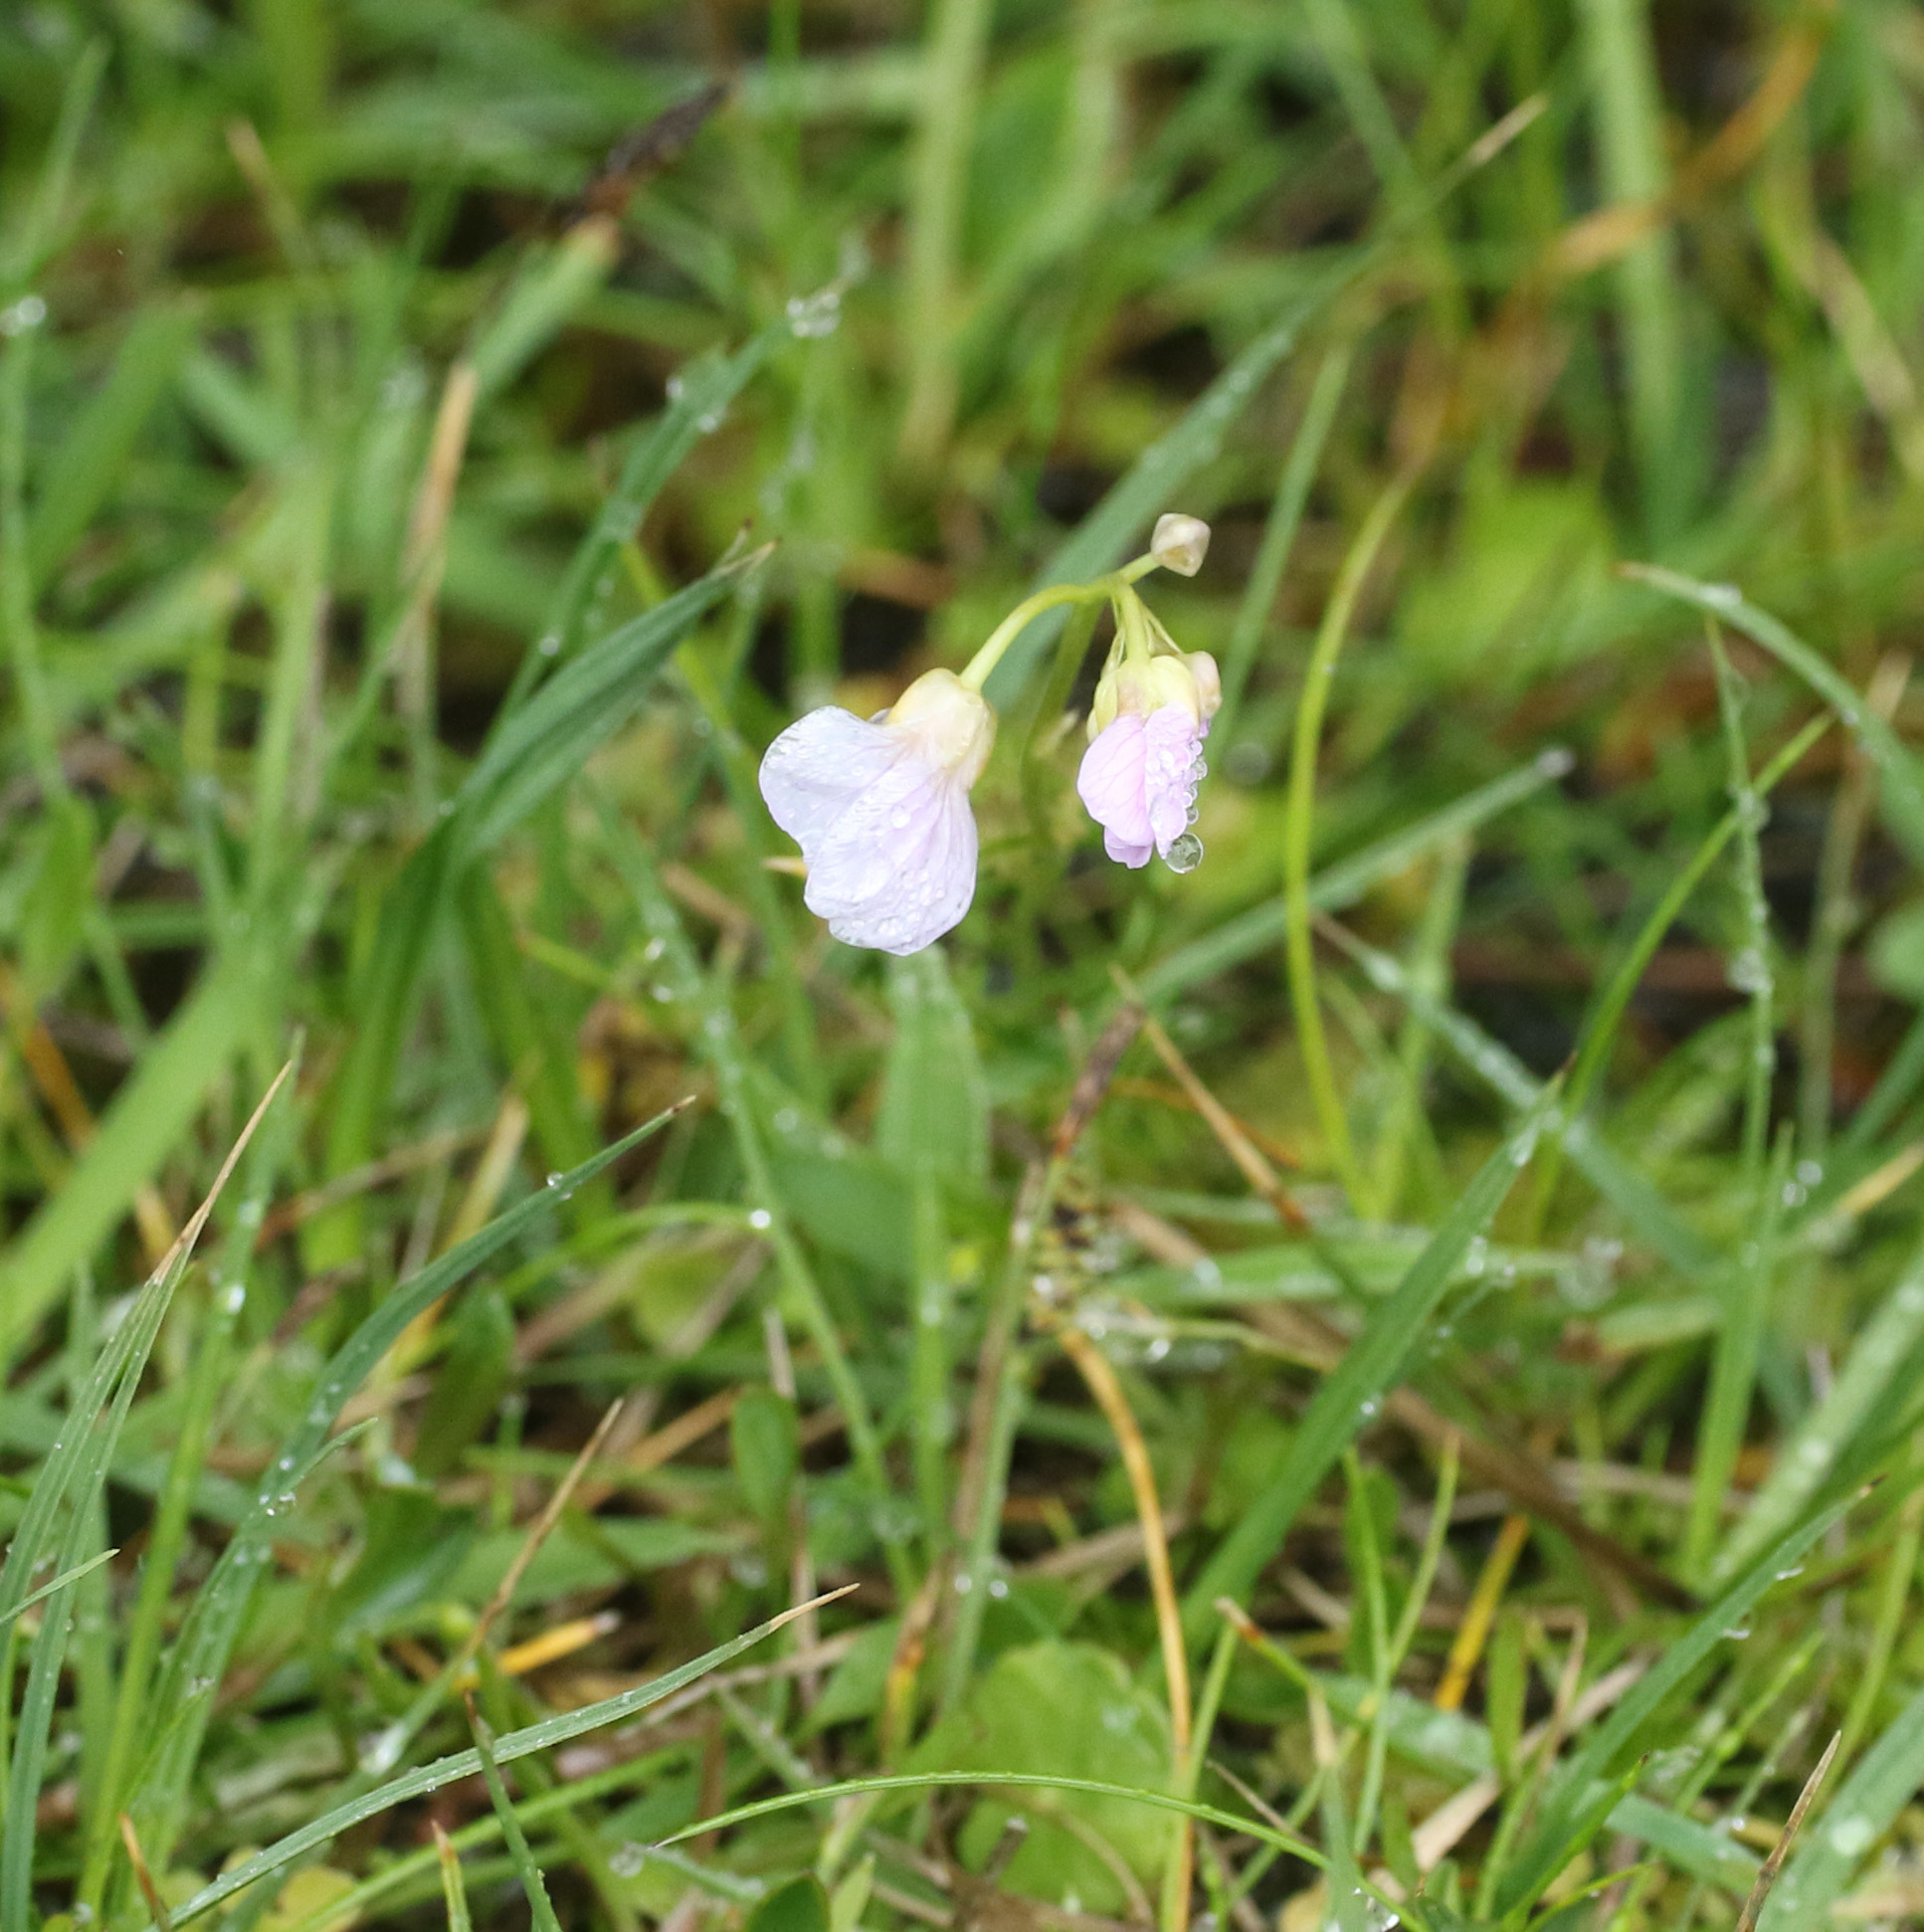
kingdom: Plantae
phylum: Tracheophyta
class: Magnoliopsida
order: Brassicales
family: Brassicaceae
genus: Cardamine
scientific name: Cardamine pratensis
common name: Cuckoo flower
